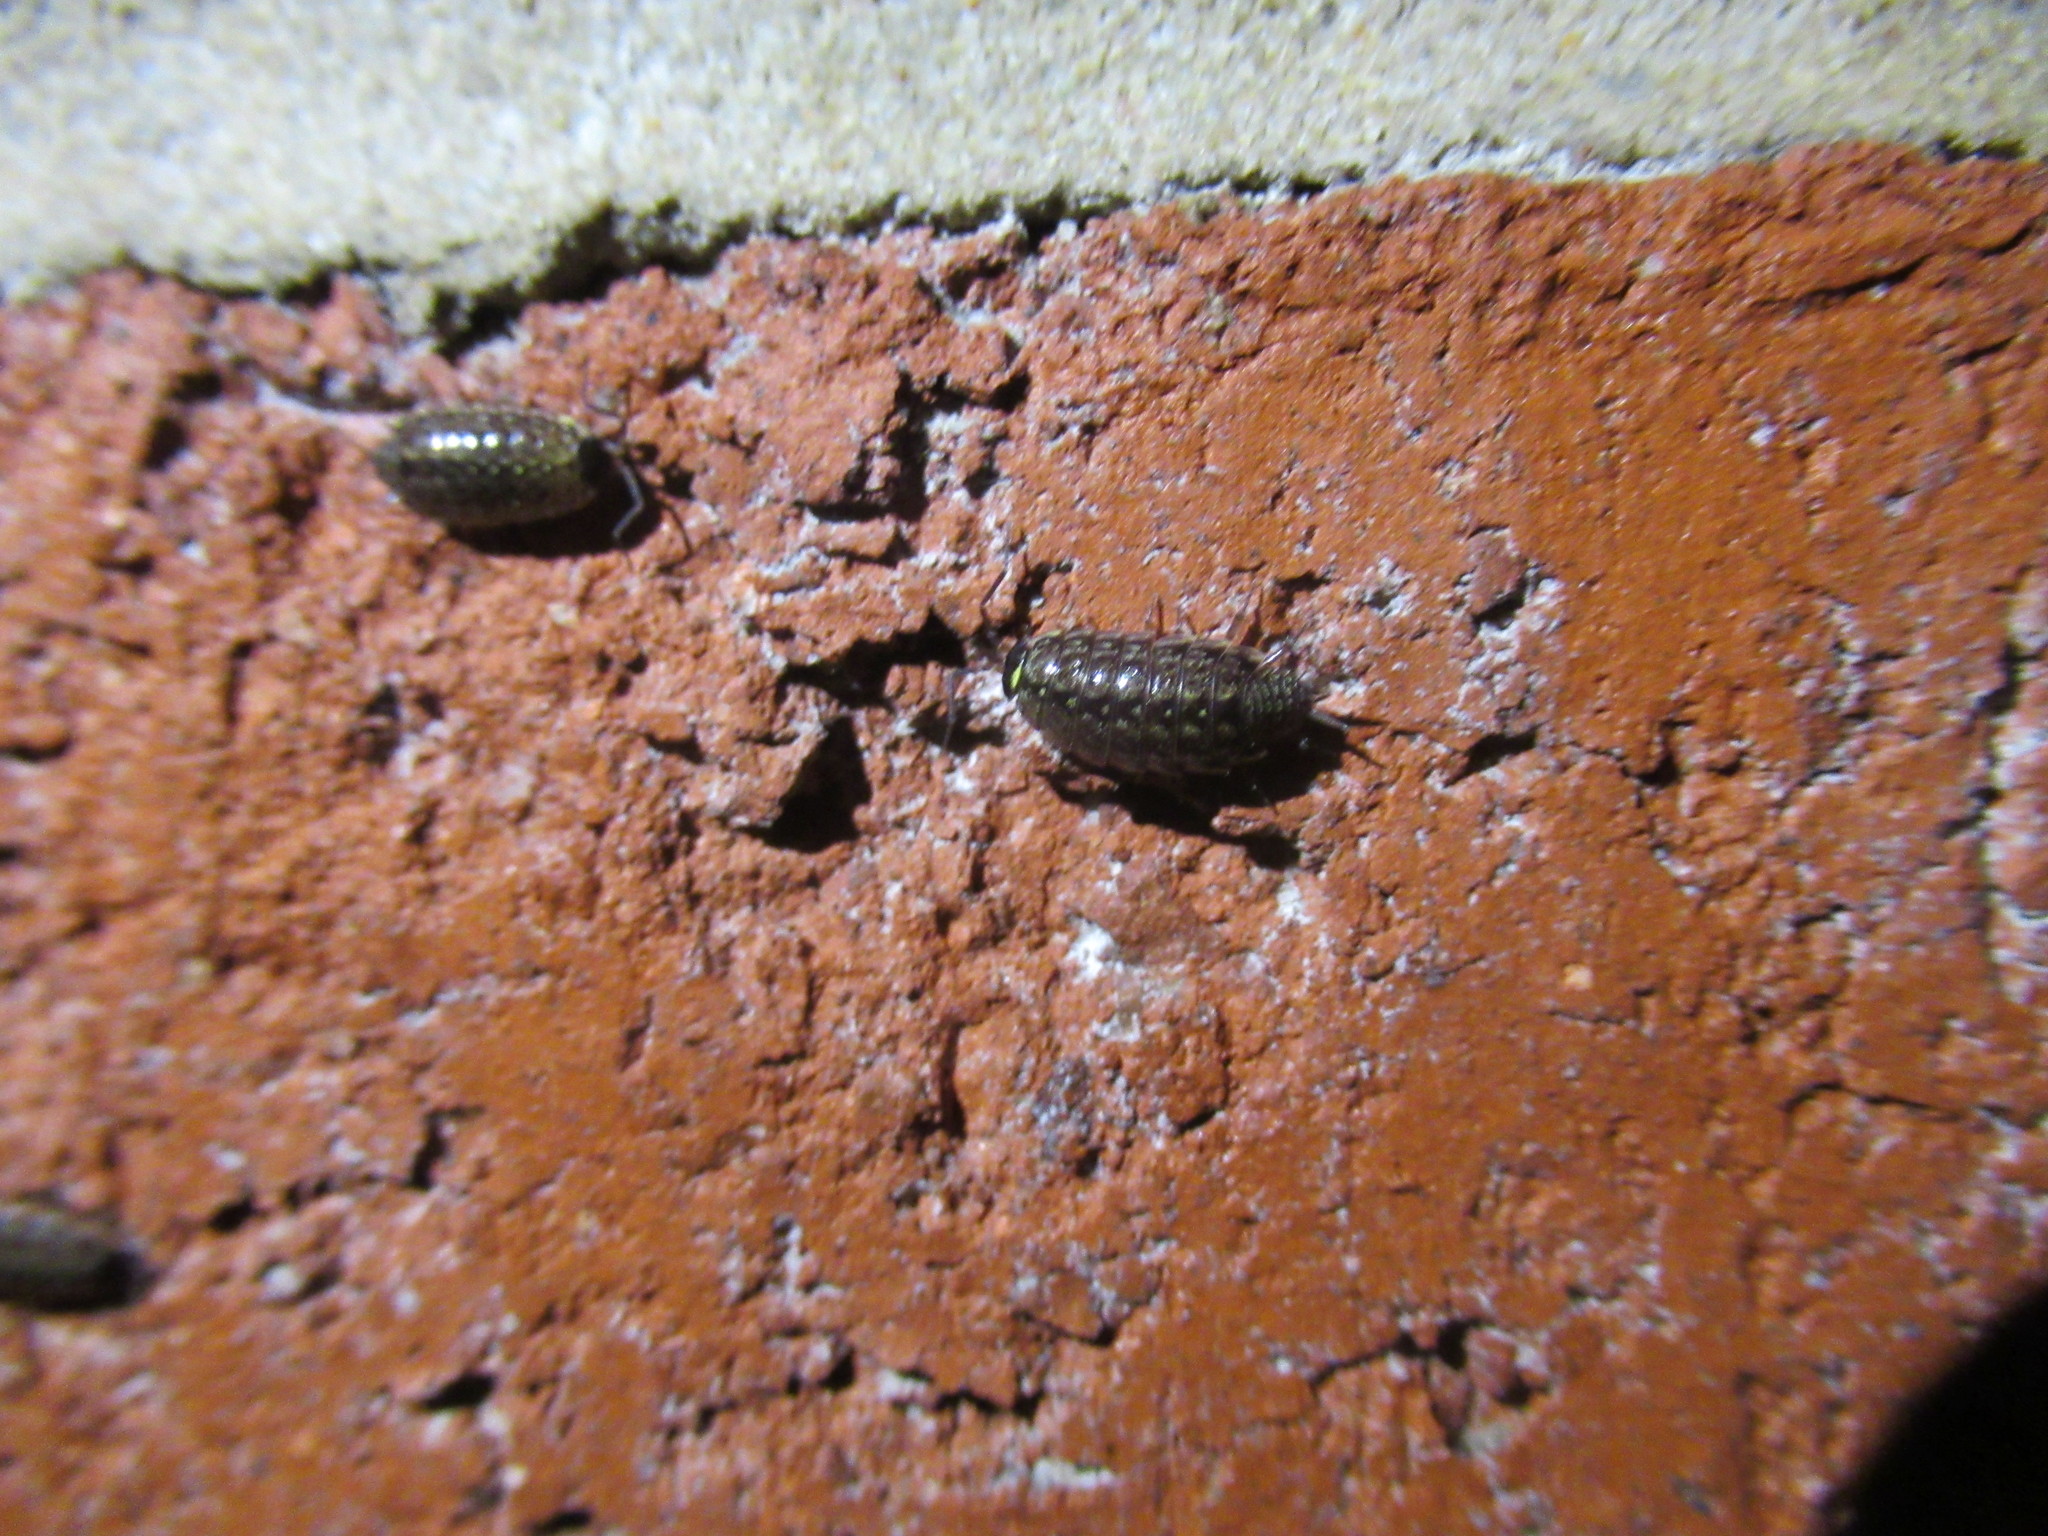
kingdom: Animalia
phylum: Arthropoda
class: Malacostraca
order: Isopoda
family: Philosciidae
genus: Philoscia
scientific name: Philoscia muscorum
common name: Common striped woodlouse
